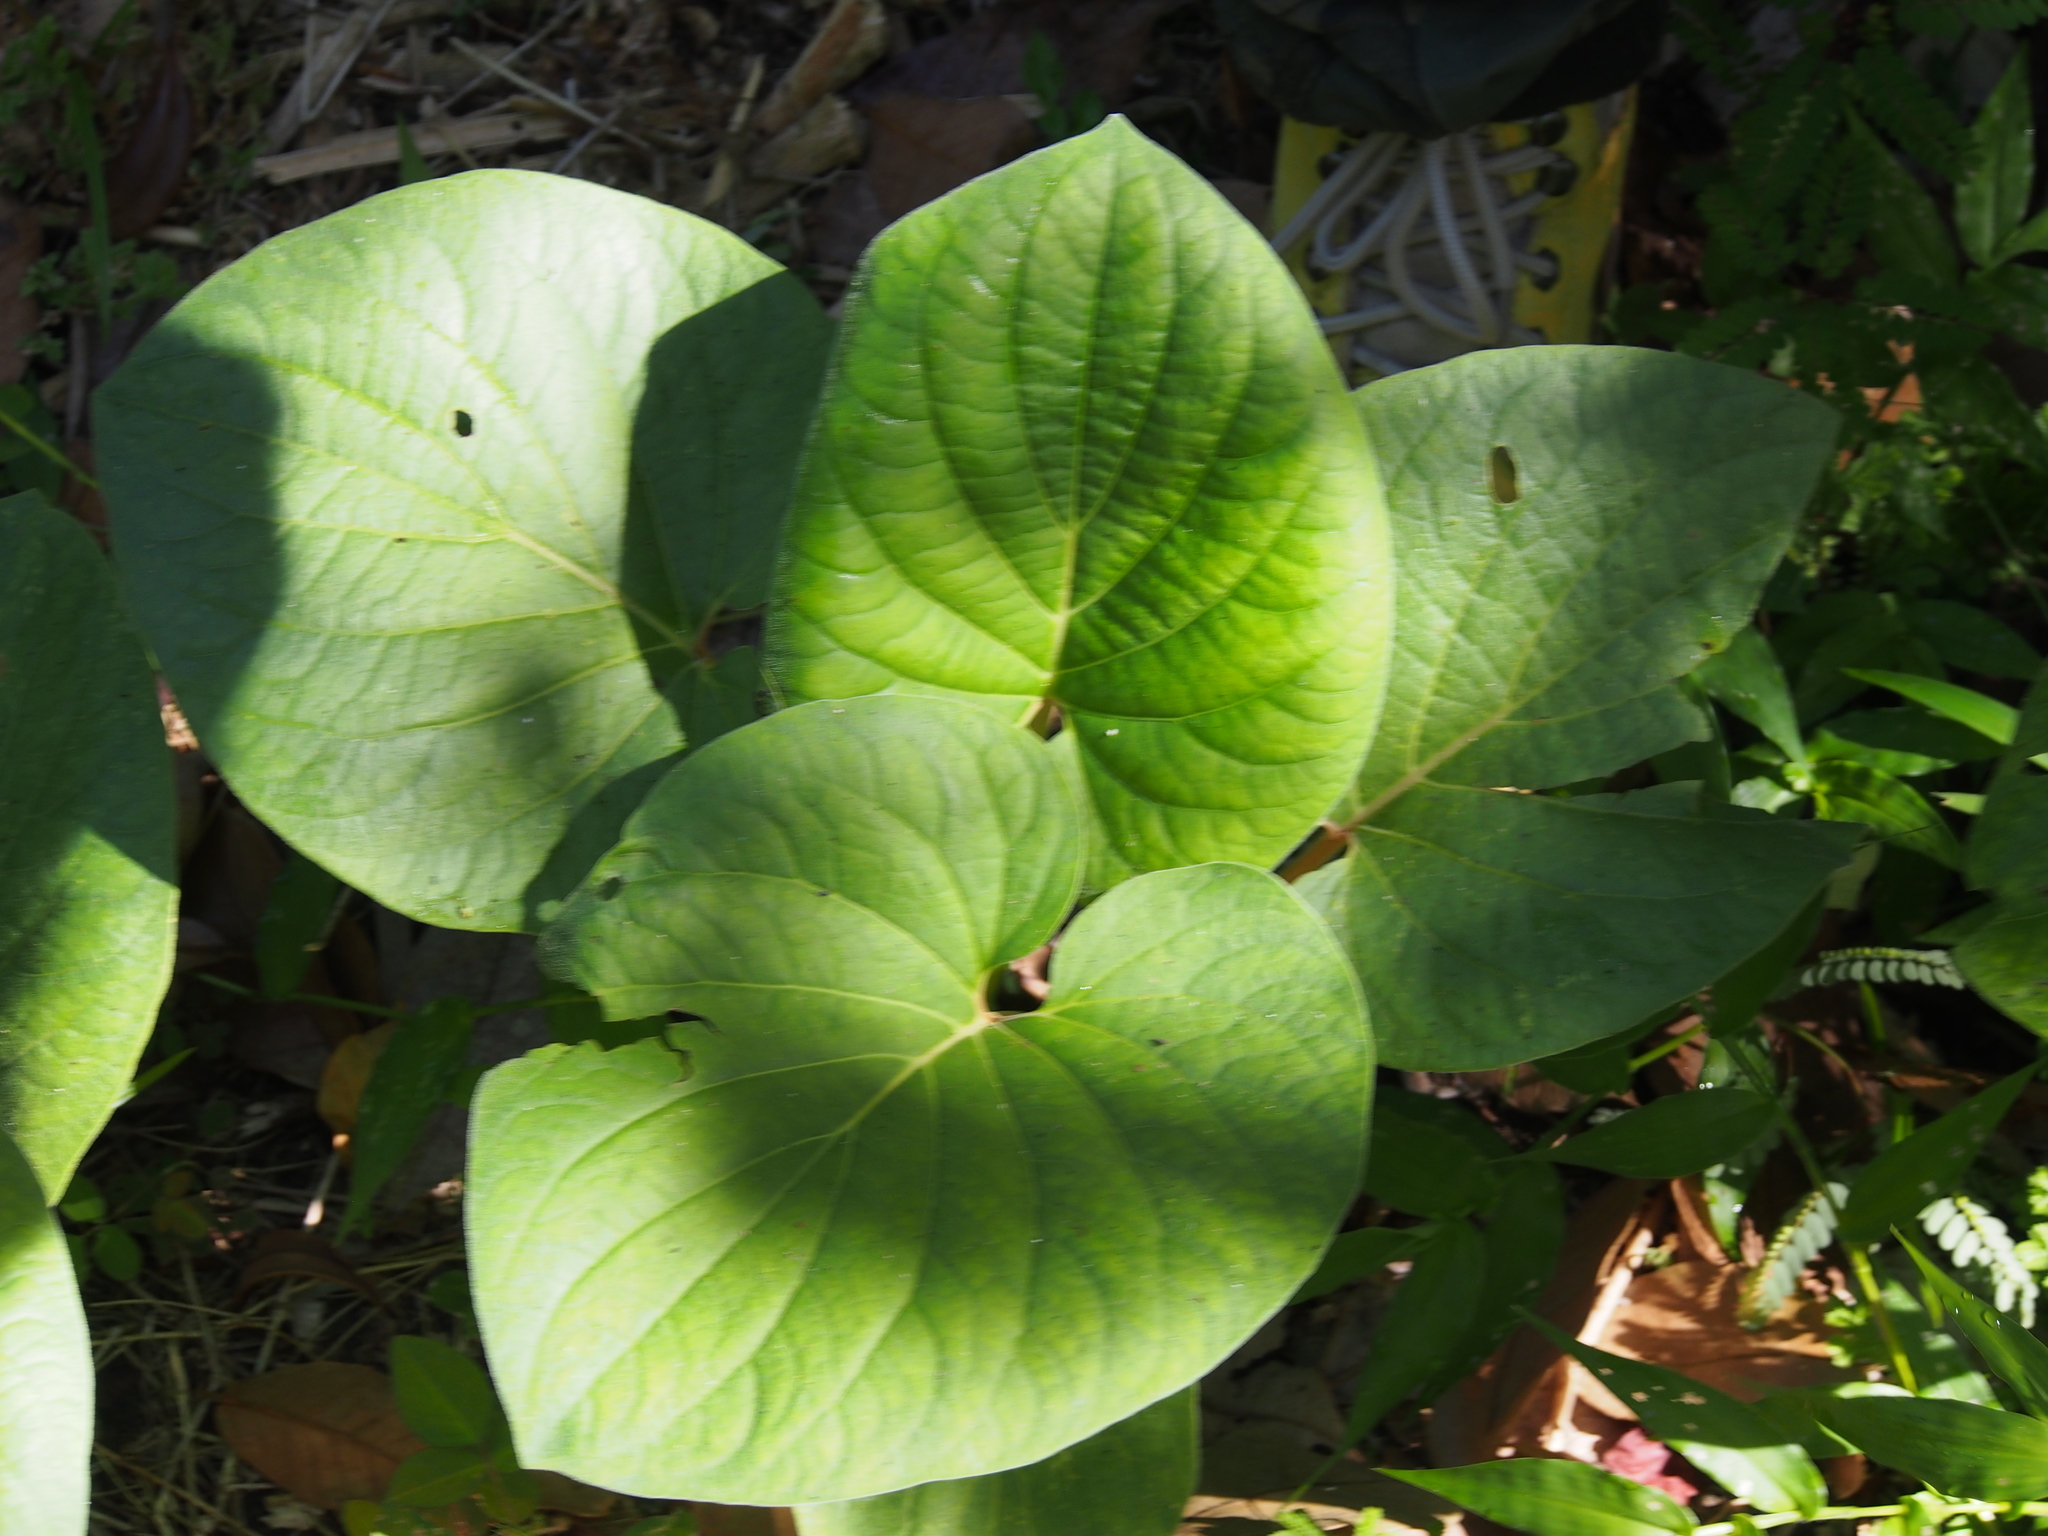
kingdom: Plantae
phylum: Tracheophyta
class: Magnoliopsida
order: Piperales
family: Piperaceae
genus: Piper
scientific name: Piper auritum
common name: Vera cruz pepper
